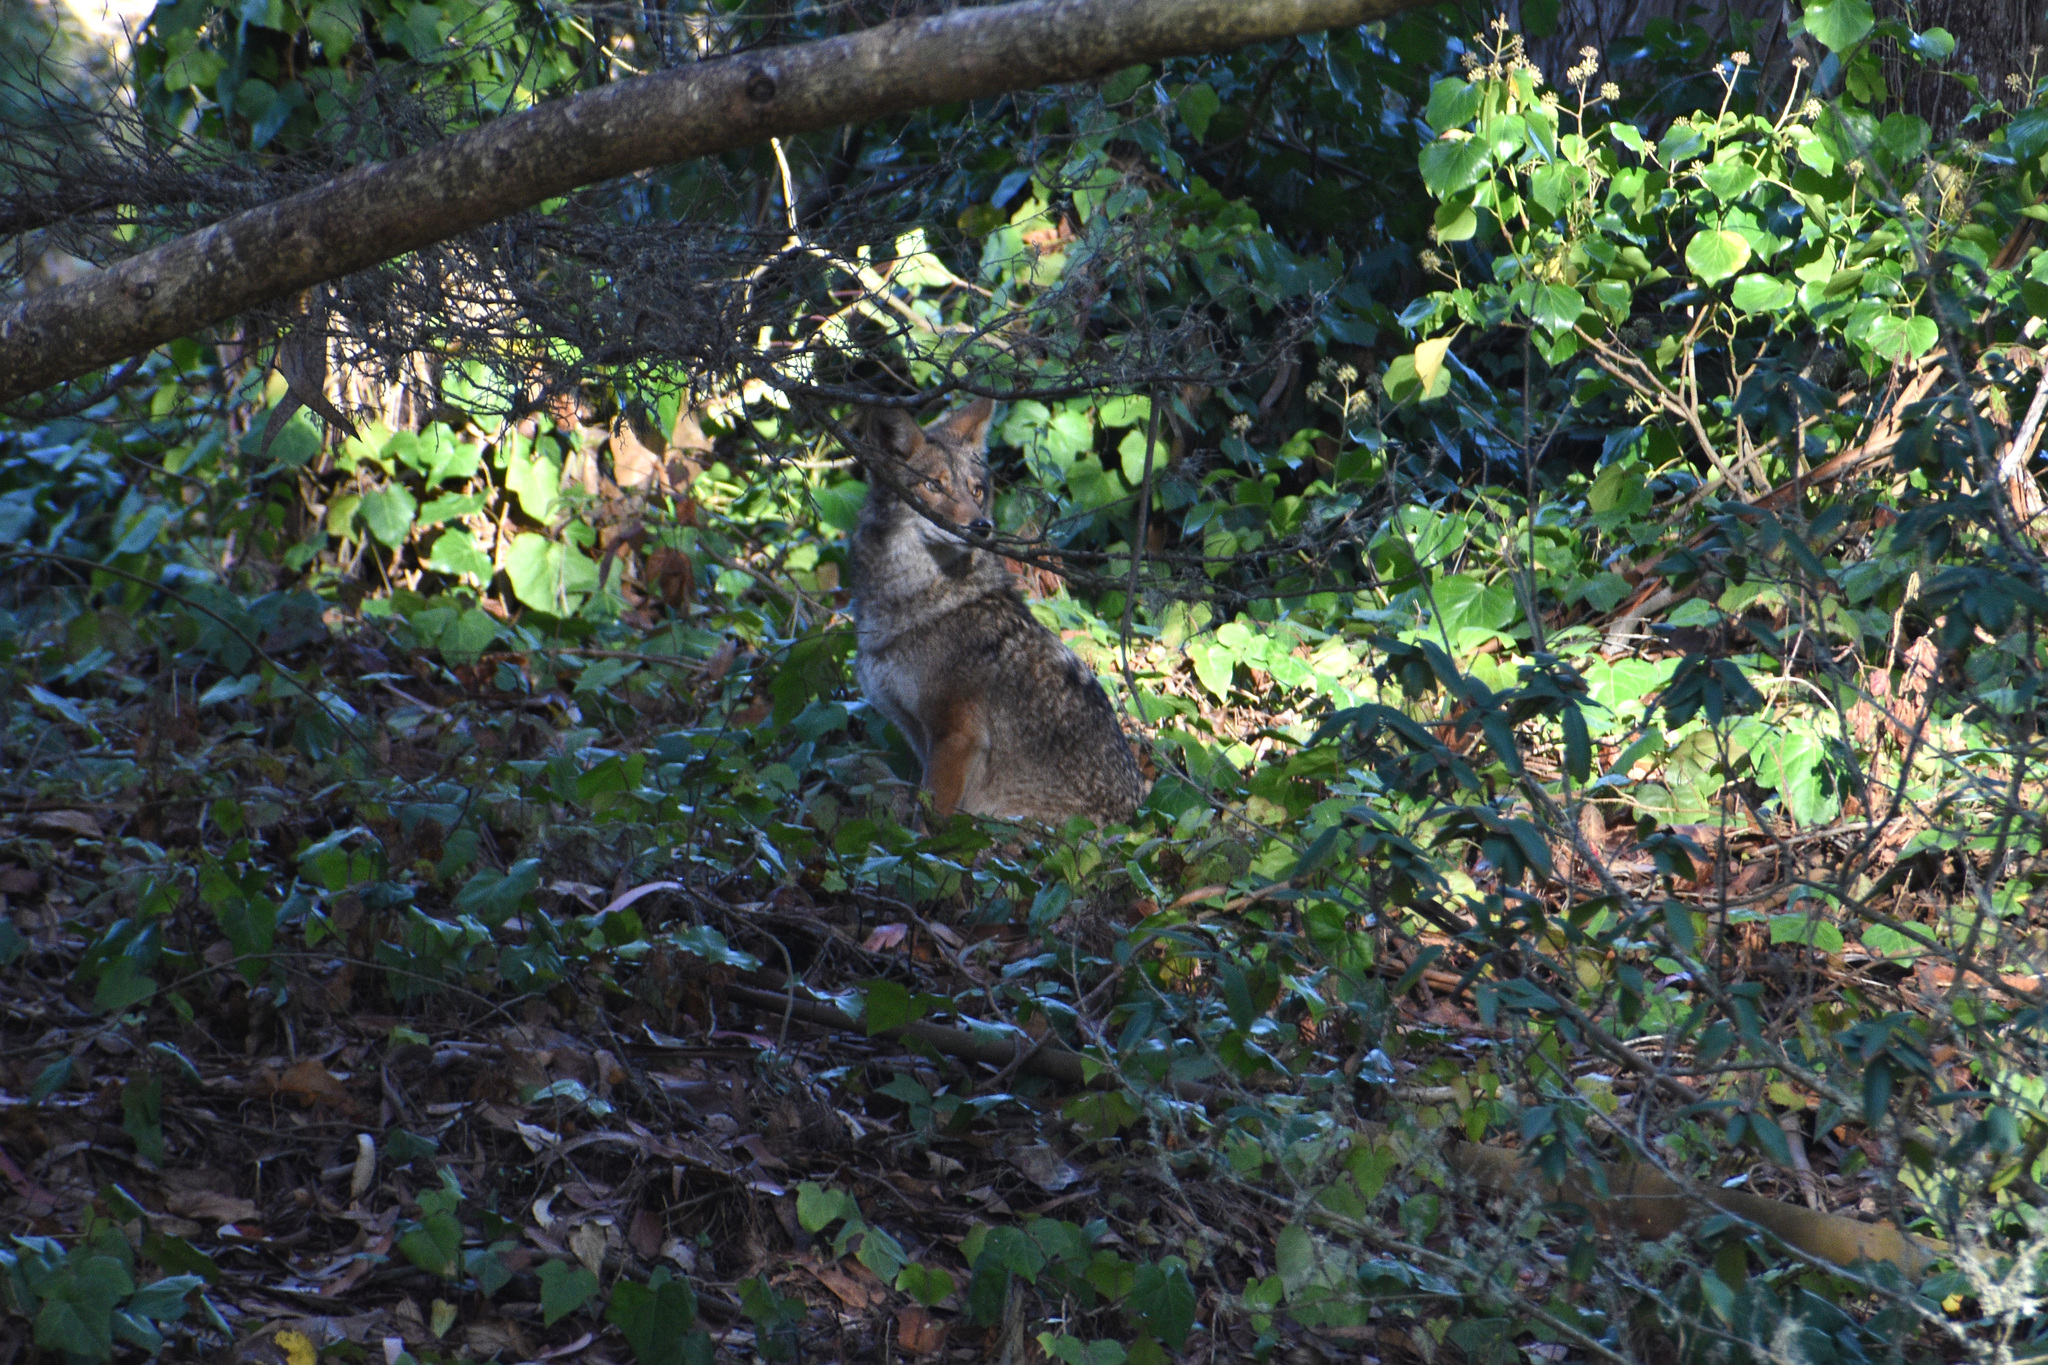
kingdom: Animalia
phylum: Chordata
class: Mammalia
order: Carnivora
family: Canidae
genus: Canis
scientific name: Canis latrans
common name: Coyote
